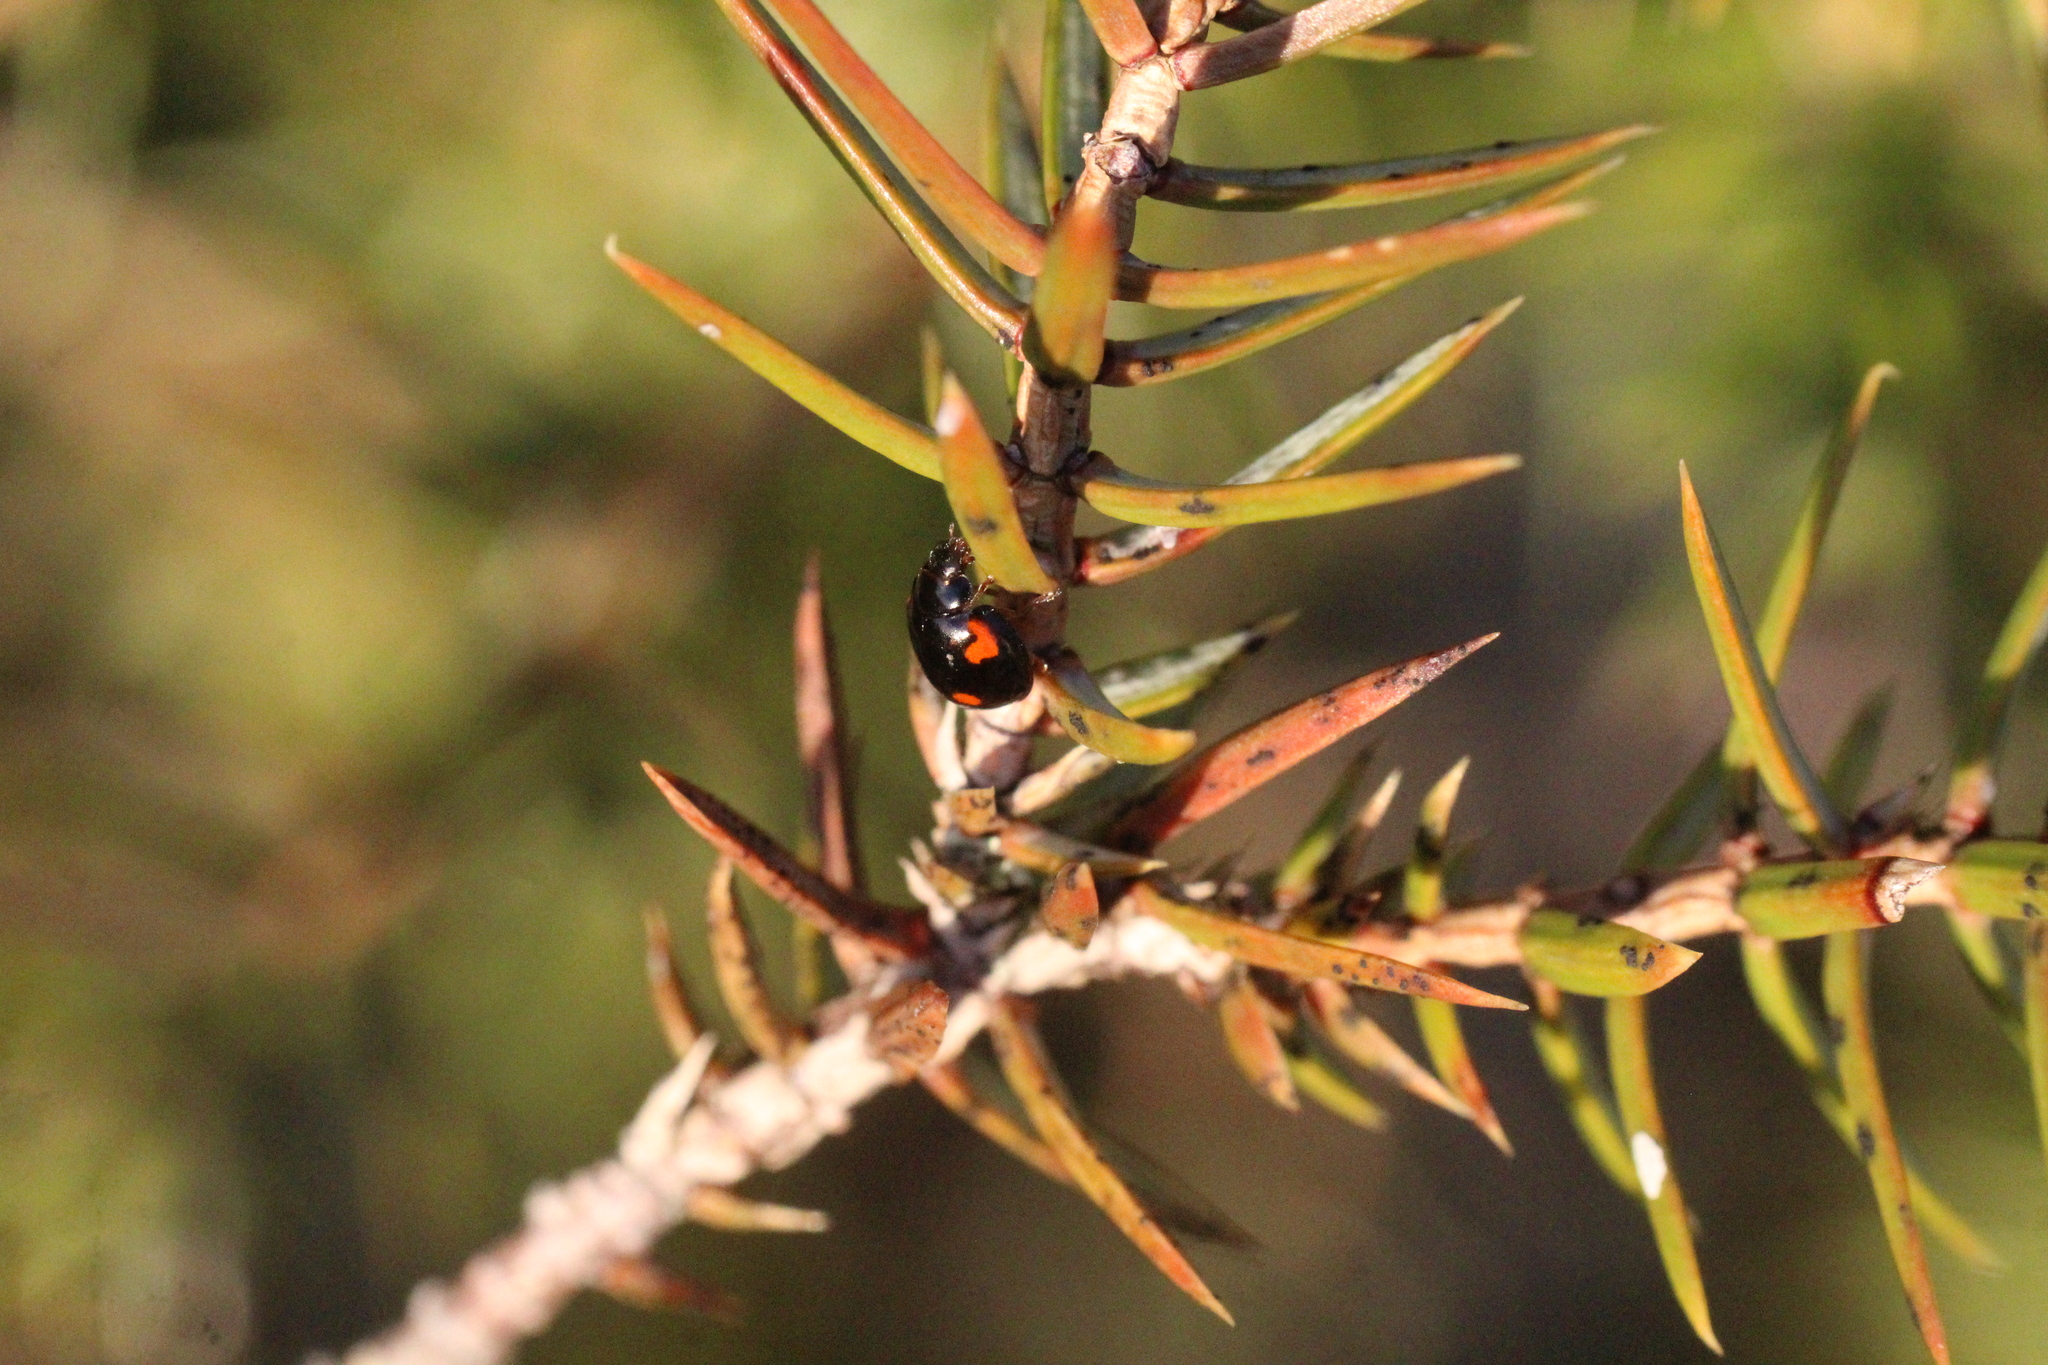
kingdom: Animalia
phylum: Arthropoda
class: Insecta
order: Coleoptera
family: Coccinellidae
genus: Brumus
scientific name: Brumus quadripustulatus
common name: Ladybird beetle
